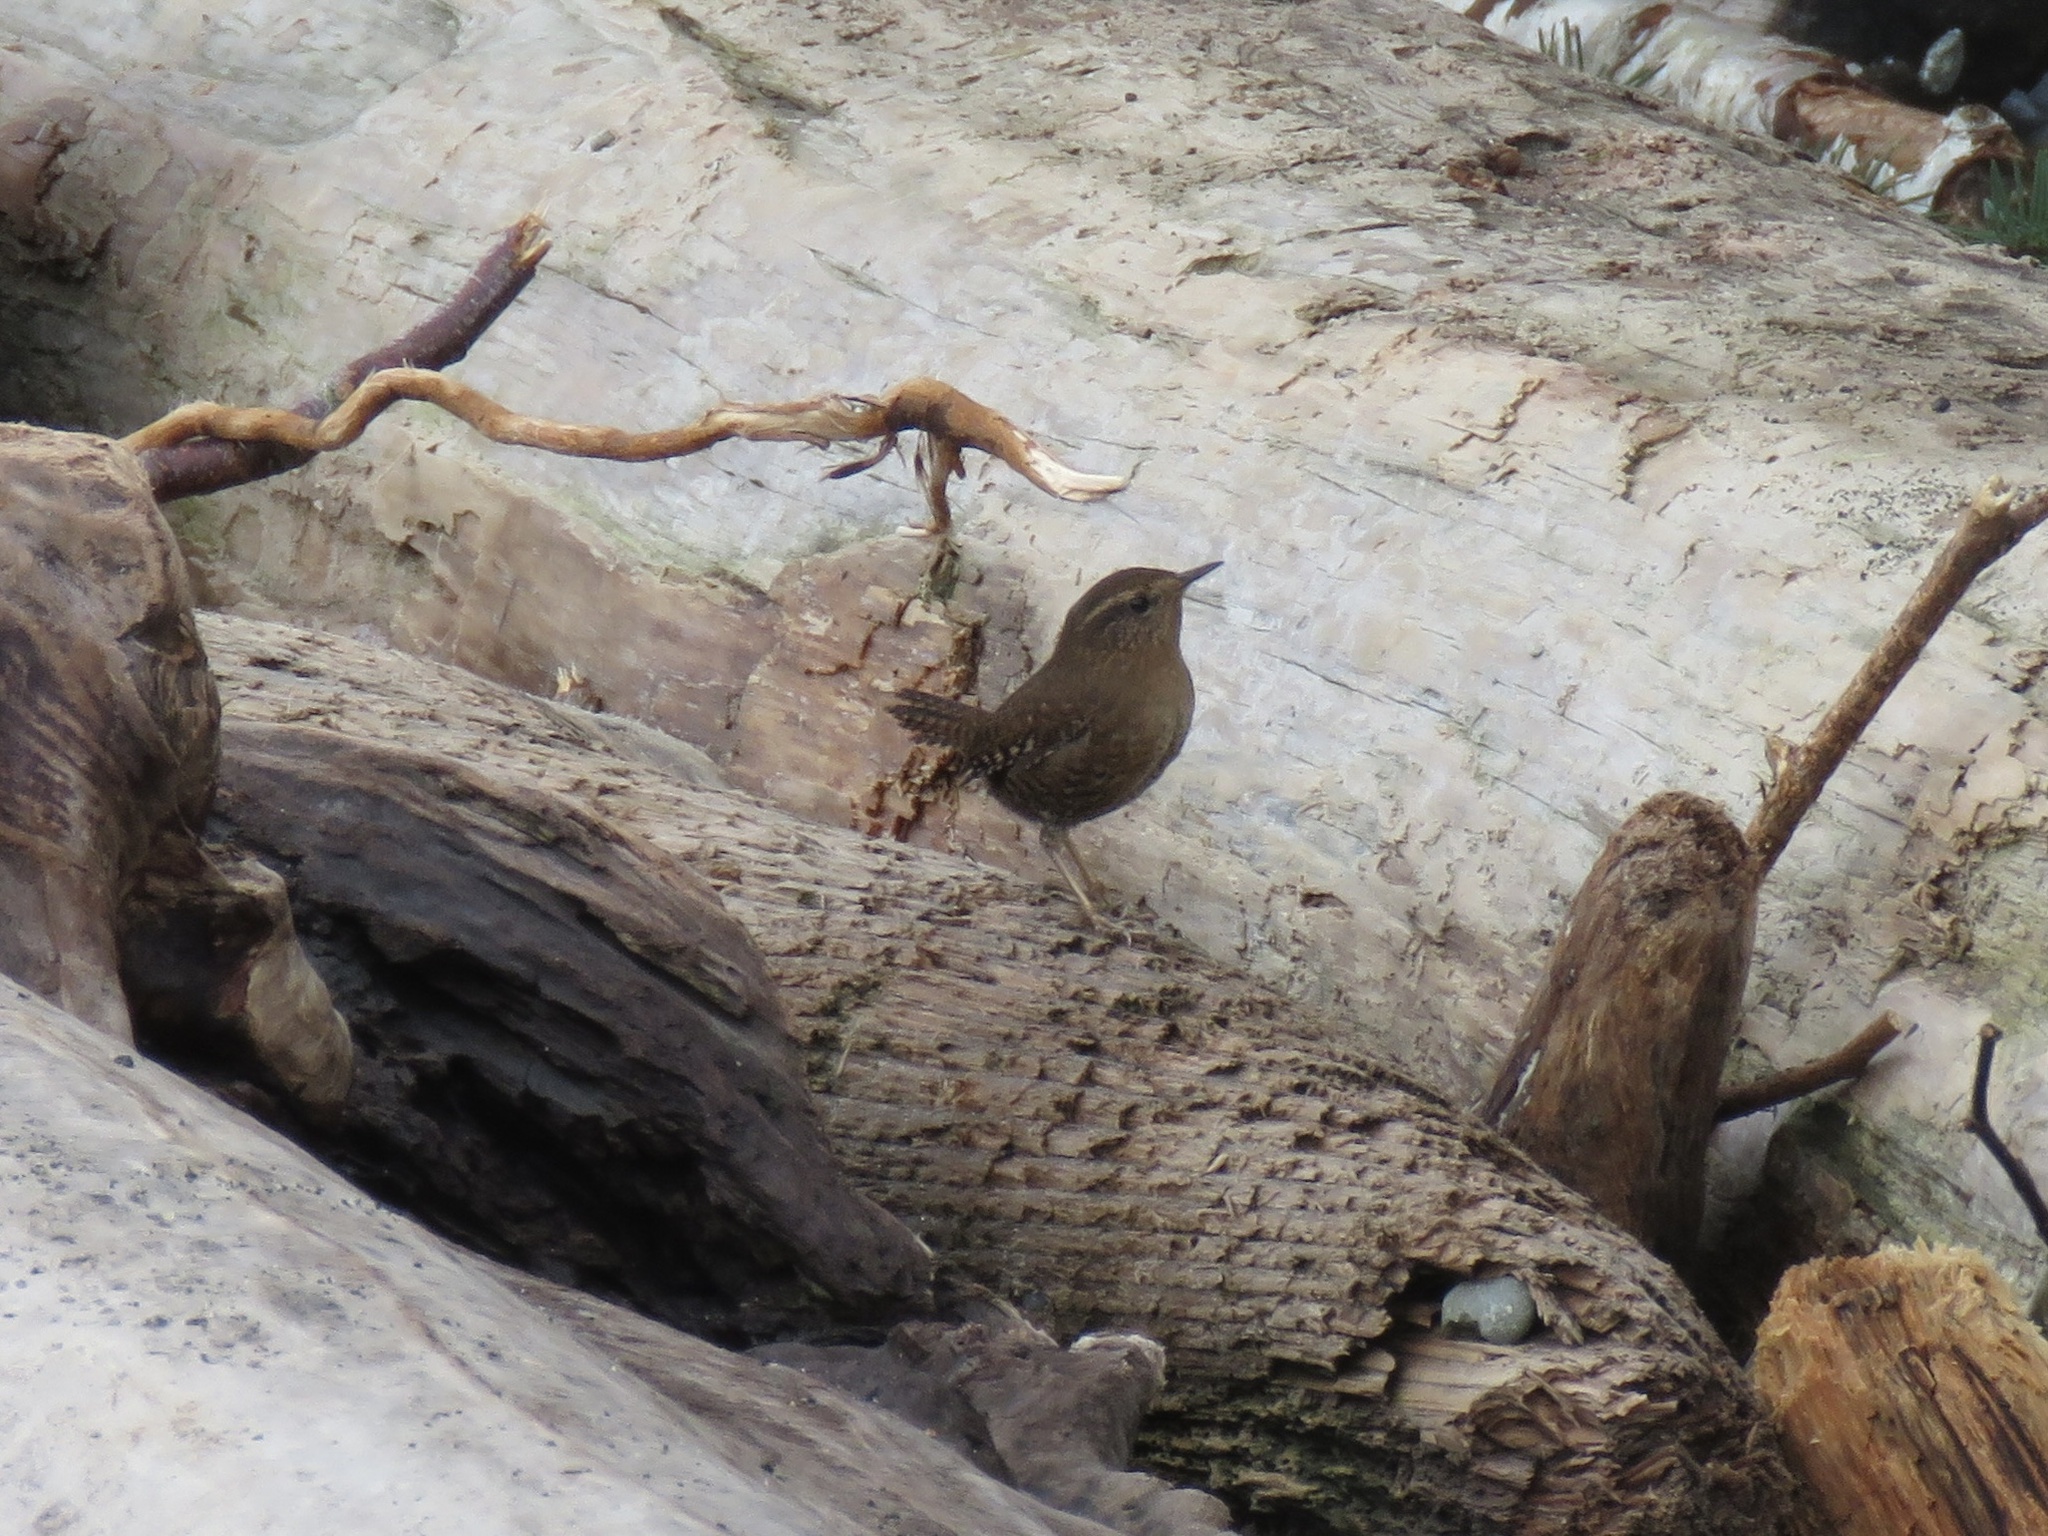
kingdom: Animalia
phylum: Chordata
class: Aves
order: Passeriformes
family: Troglodytidae
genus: Troglodytes
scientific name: Troglodytes pacificus
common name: Pacific wren
